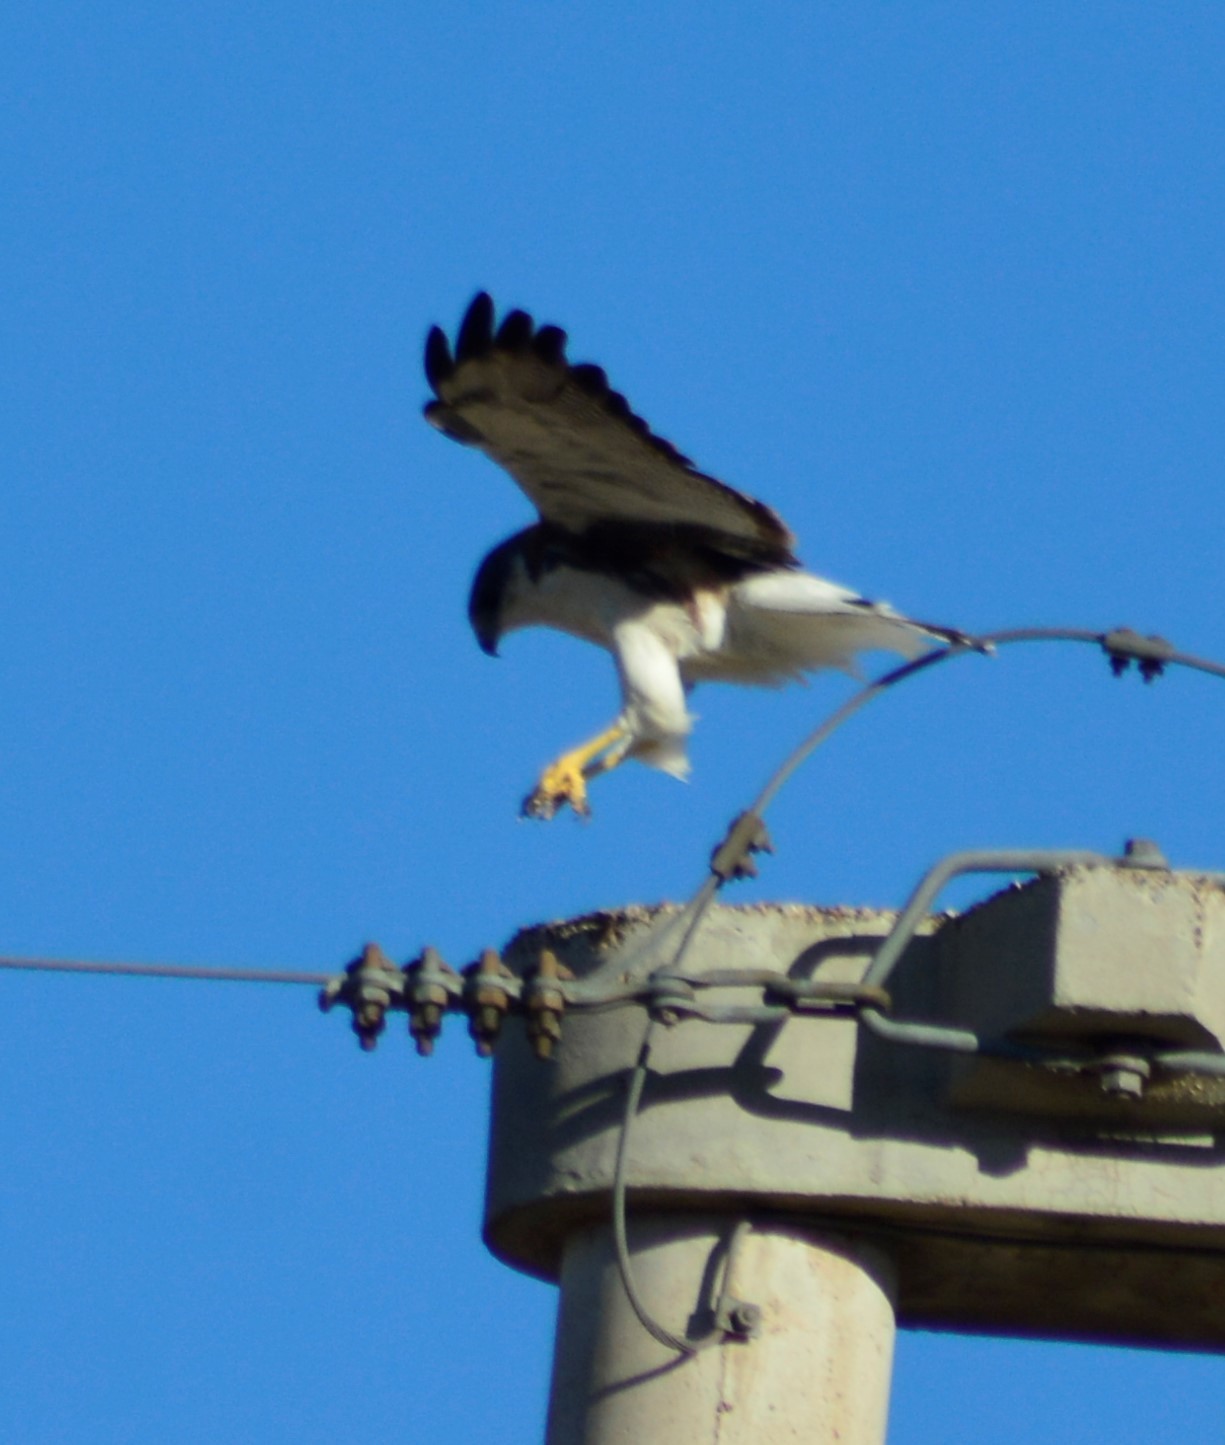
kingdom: Animalia
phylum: Chordata
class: Aves
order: Accipitriformes
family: Accipitridae
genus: Buteo
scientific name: Buteo polyosoma
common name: Variable hawk
